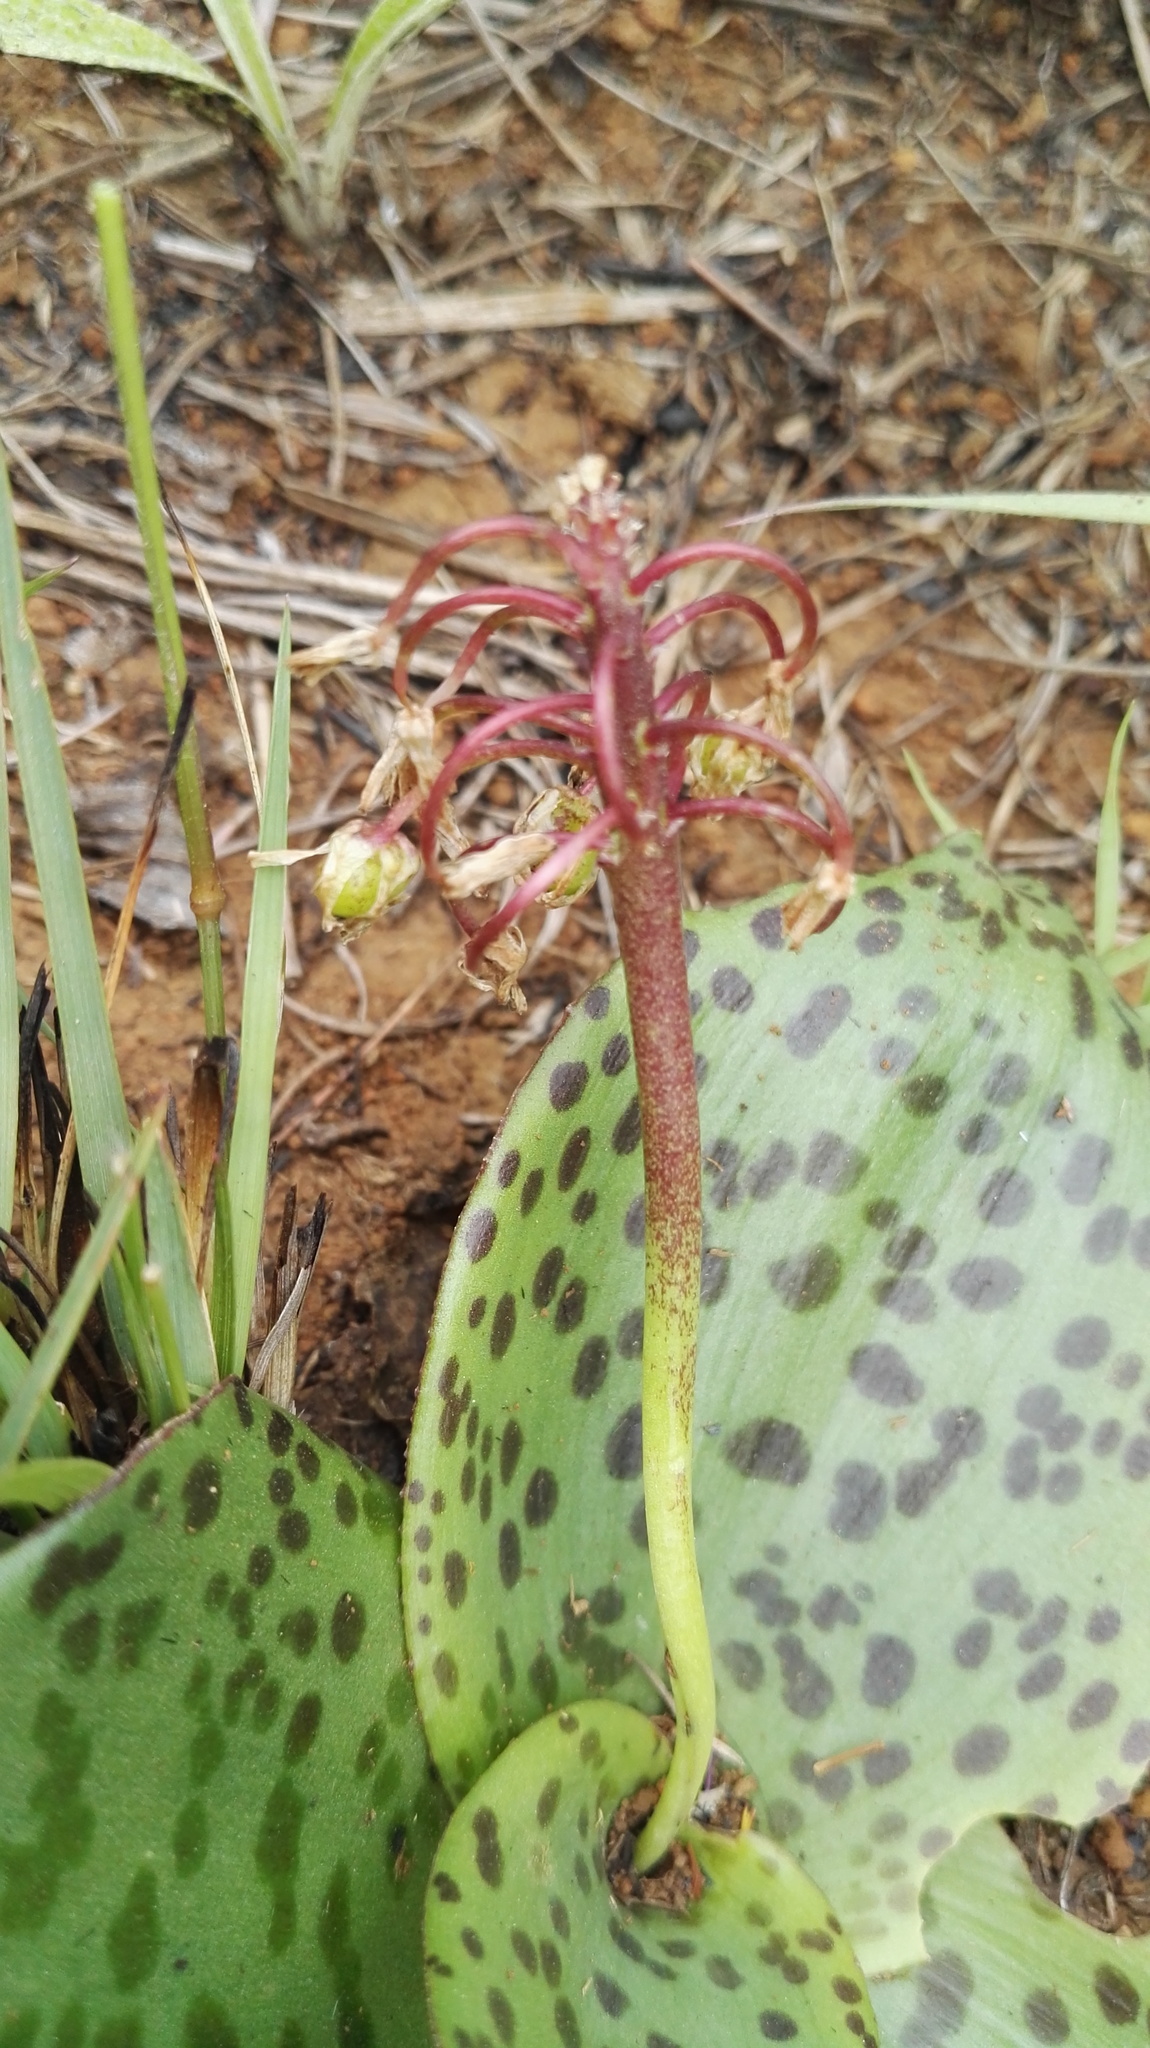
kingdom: Plantae
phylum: Tracheophyta
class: Liliopsida
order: Asparagales
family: Asparagaceae
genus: Ledebouria
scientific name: Ledebouria ovatifolia
